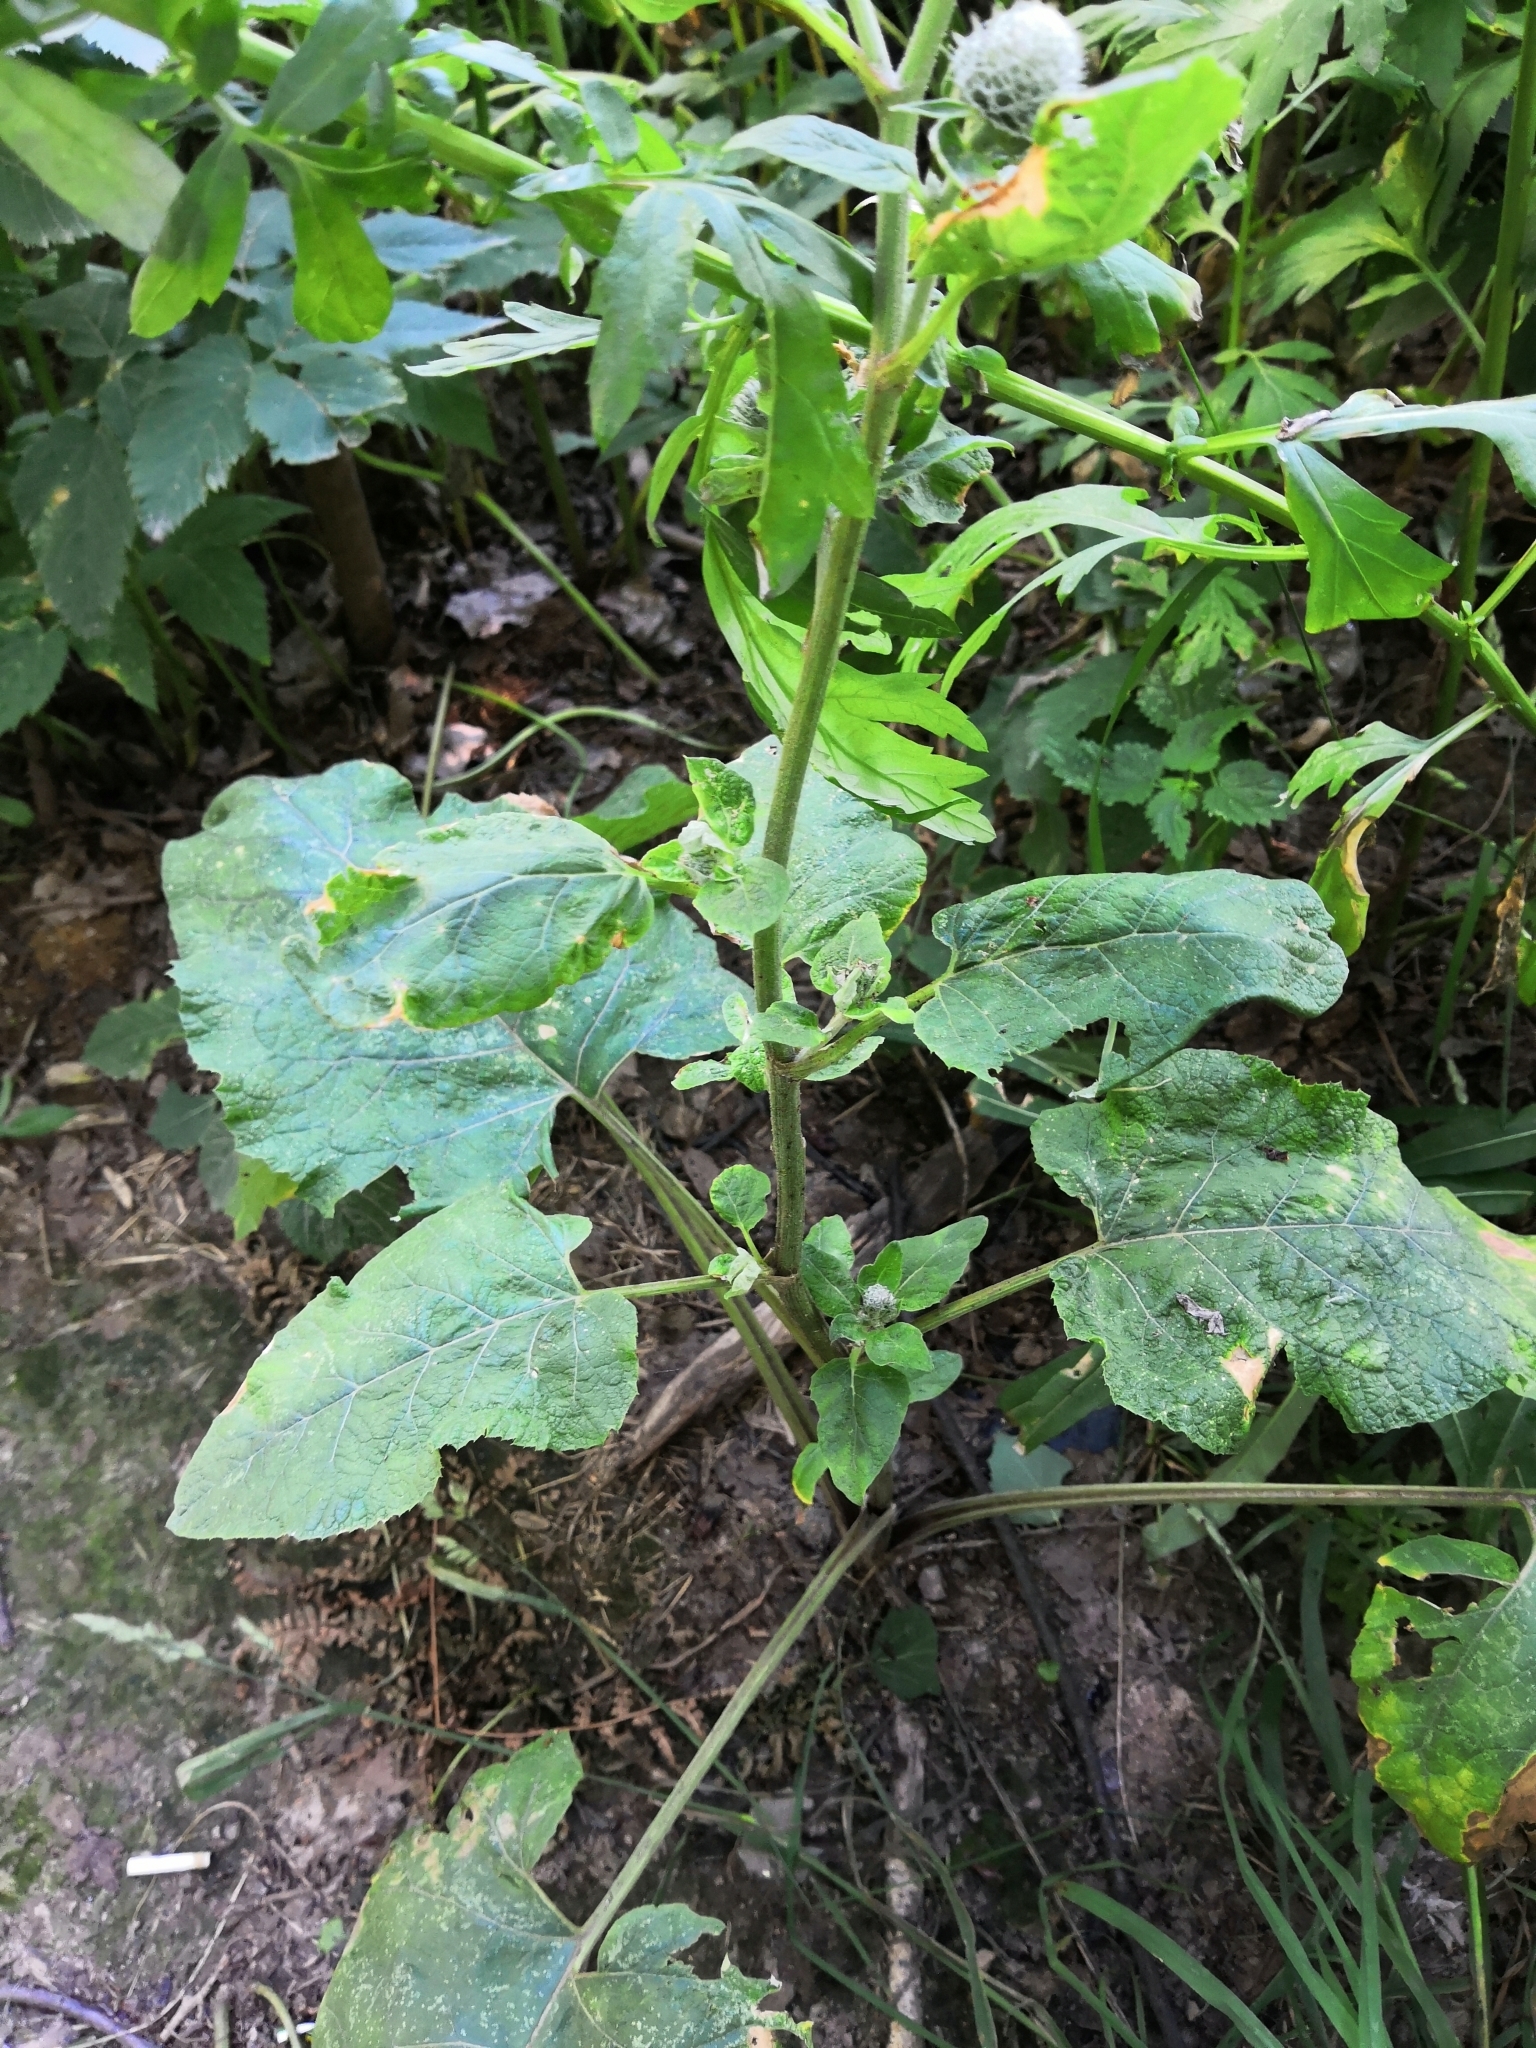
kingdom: Plantae
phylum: Tracheophyta
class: Magnoliopsida
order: Asterales
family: Asteraceae
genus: Arctium
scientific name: Arctium tomentosum
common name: Woolly burdock
